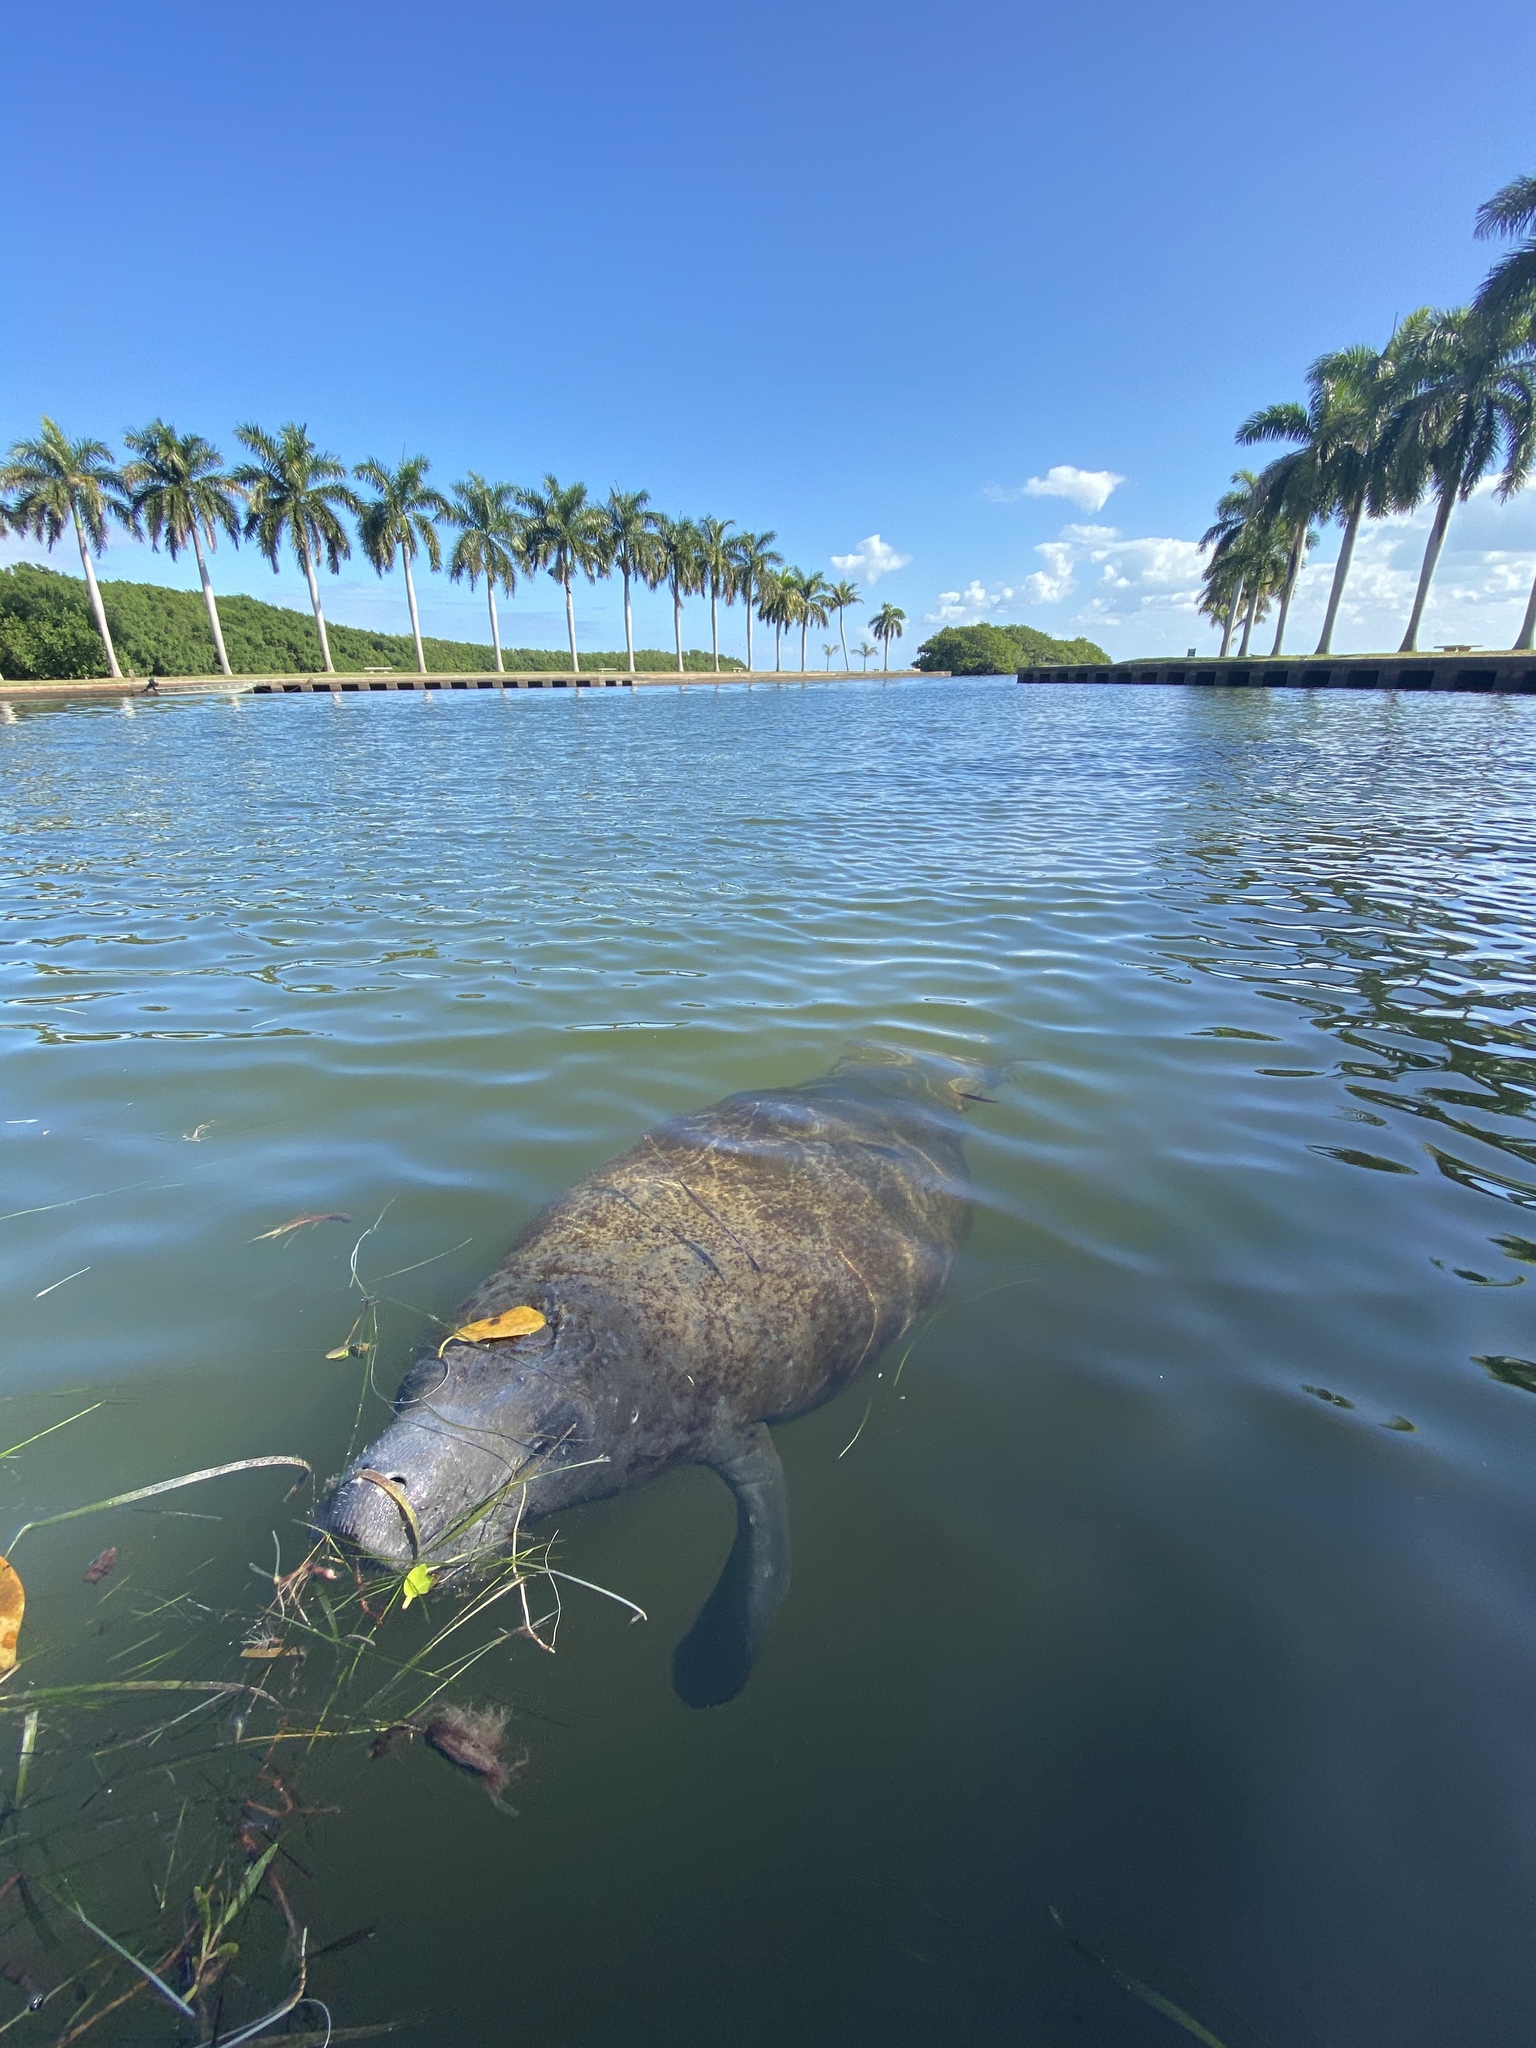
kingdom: Animalia
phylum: Chordata
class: Mammalia
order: Sirenia
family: Trichechidae
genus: Trichechus
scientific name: Trichechus manatus
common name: West indian manatee
